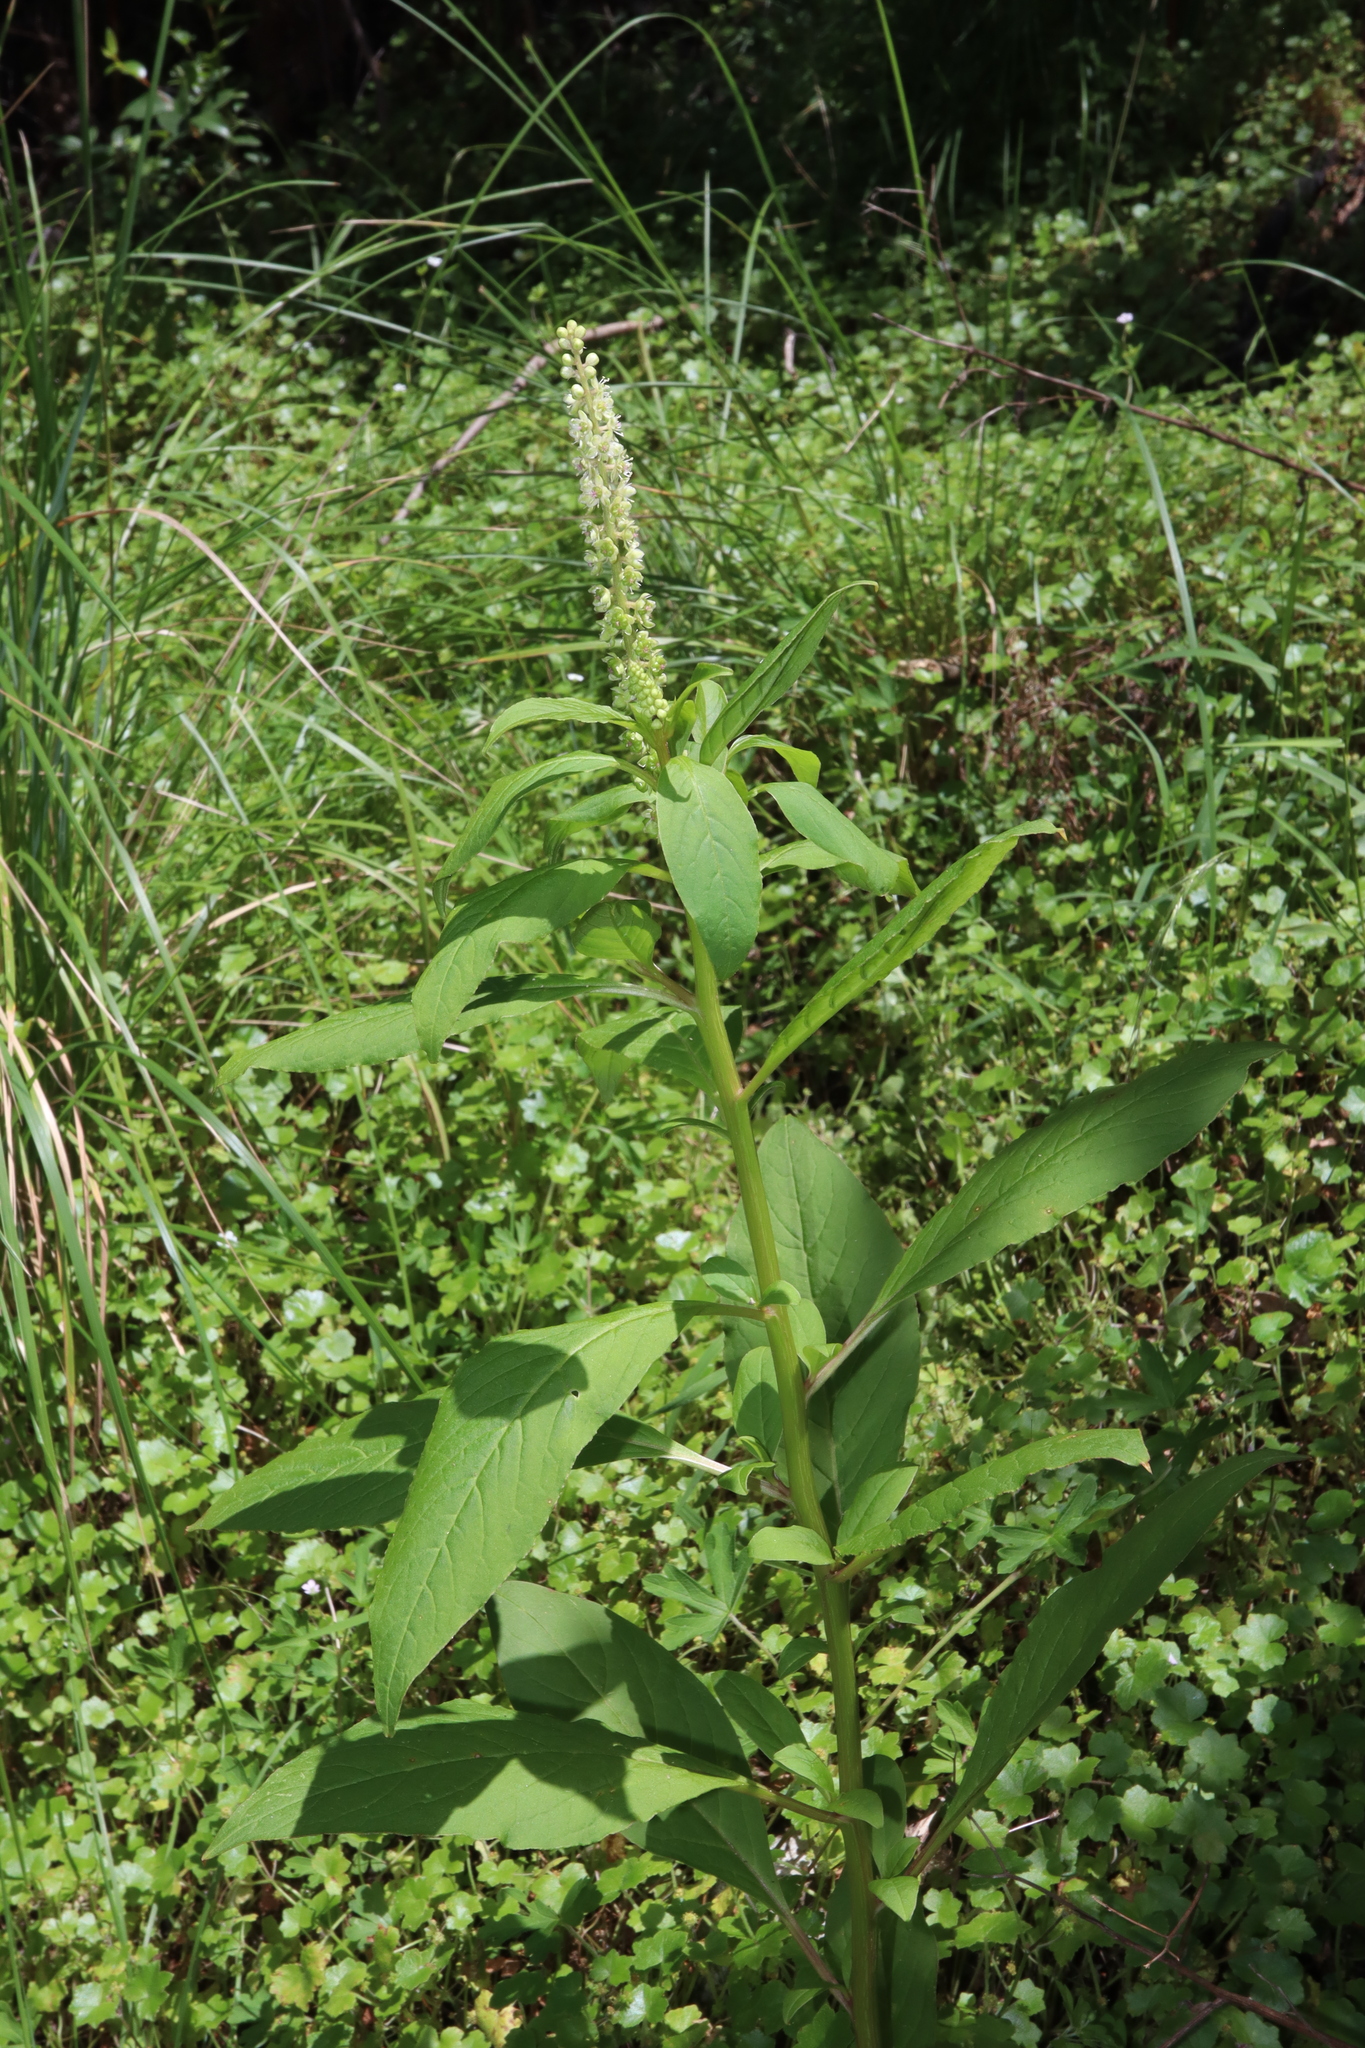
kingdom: Plantae
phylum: Tracheophyta
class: Magnoliopsida
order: Caryophyllales
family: Phytolaccaceae
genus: Phytolacca
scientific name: Phytolacca icosandra
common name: Button pokeweed
